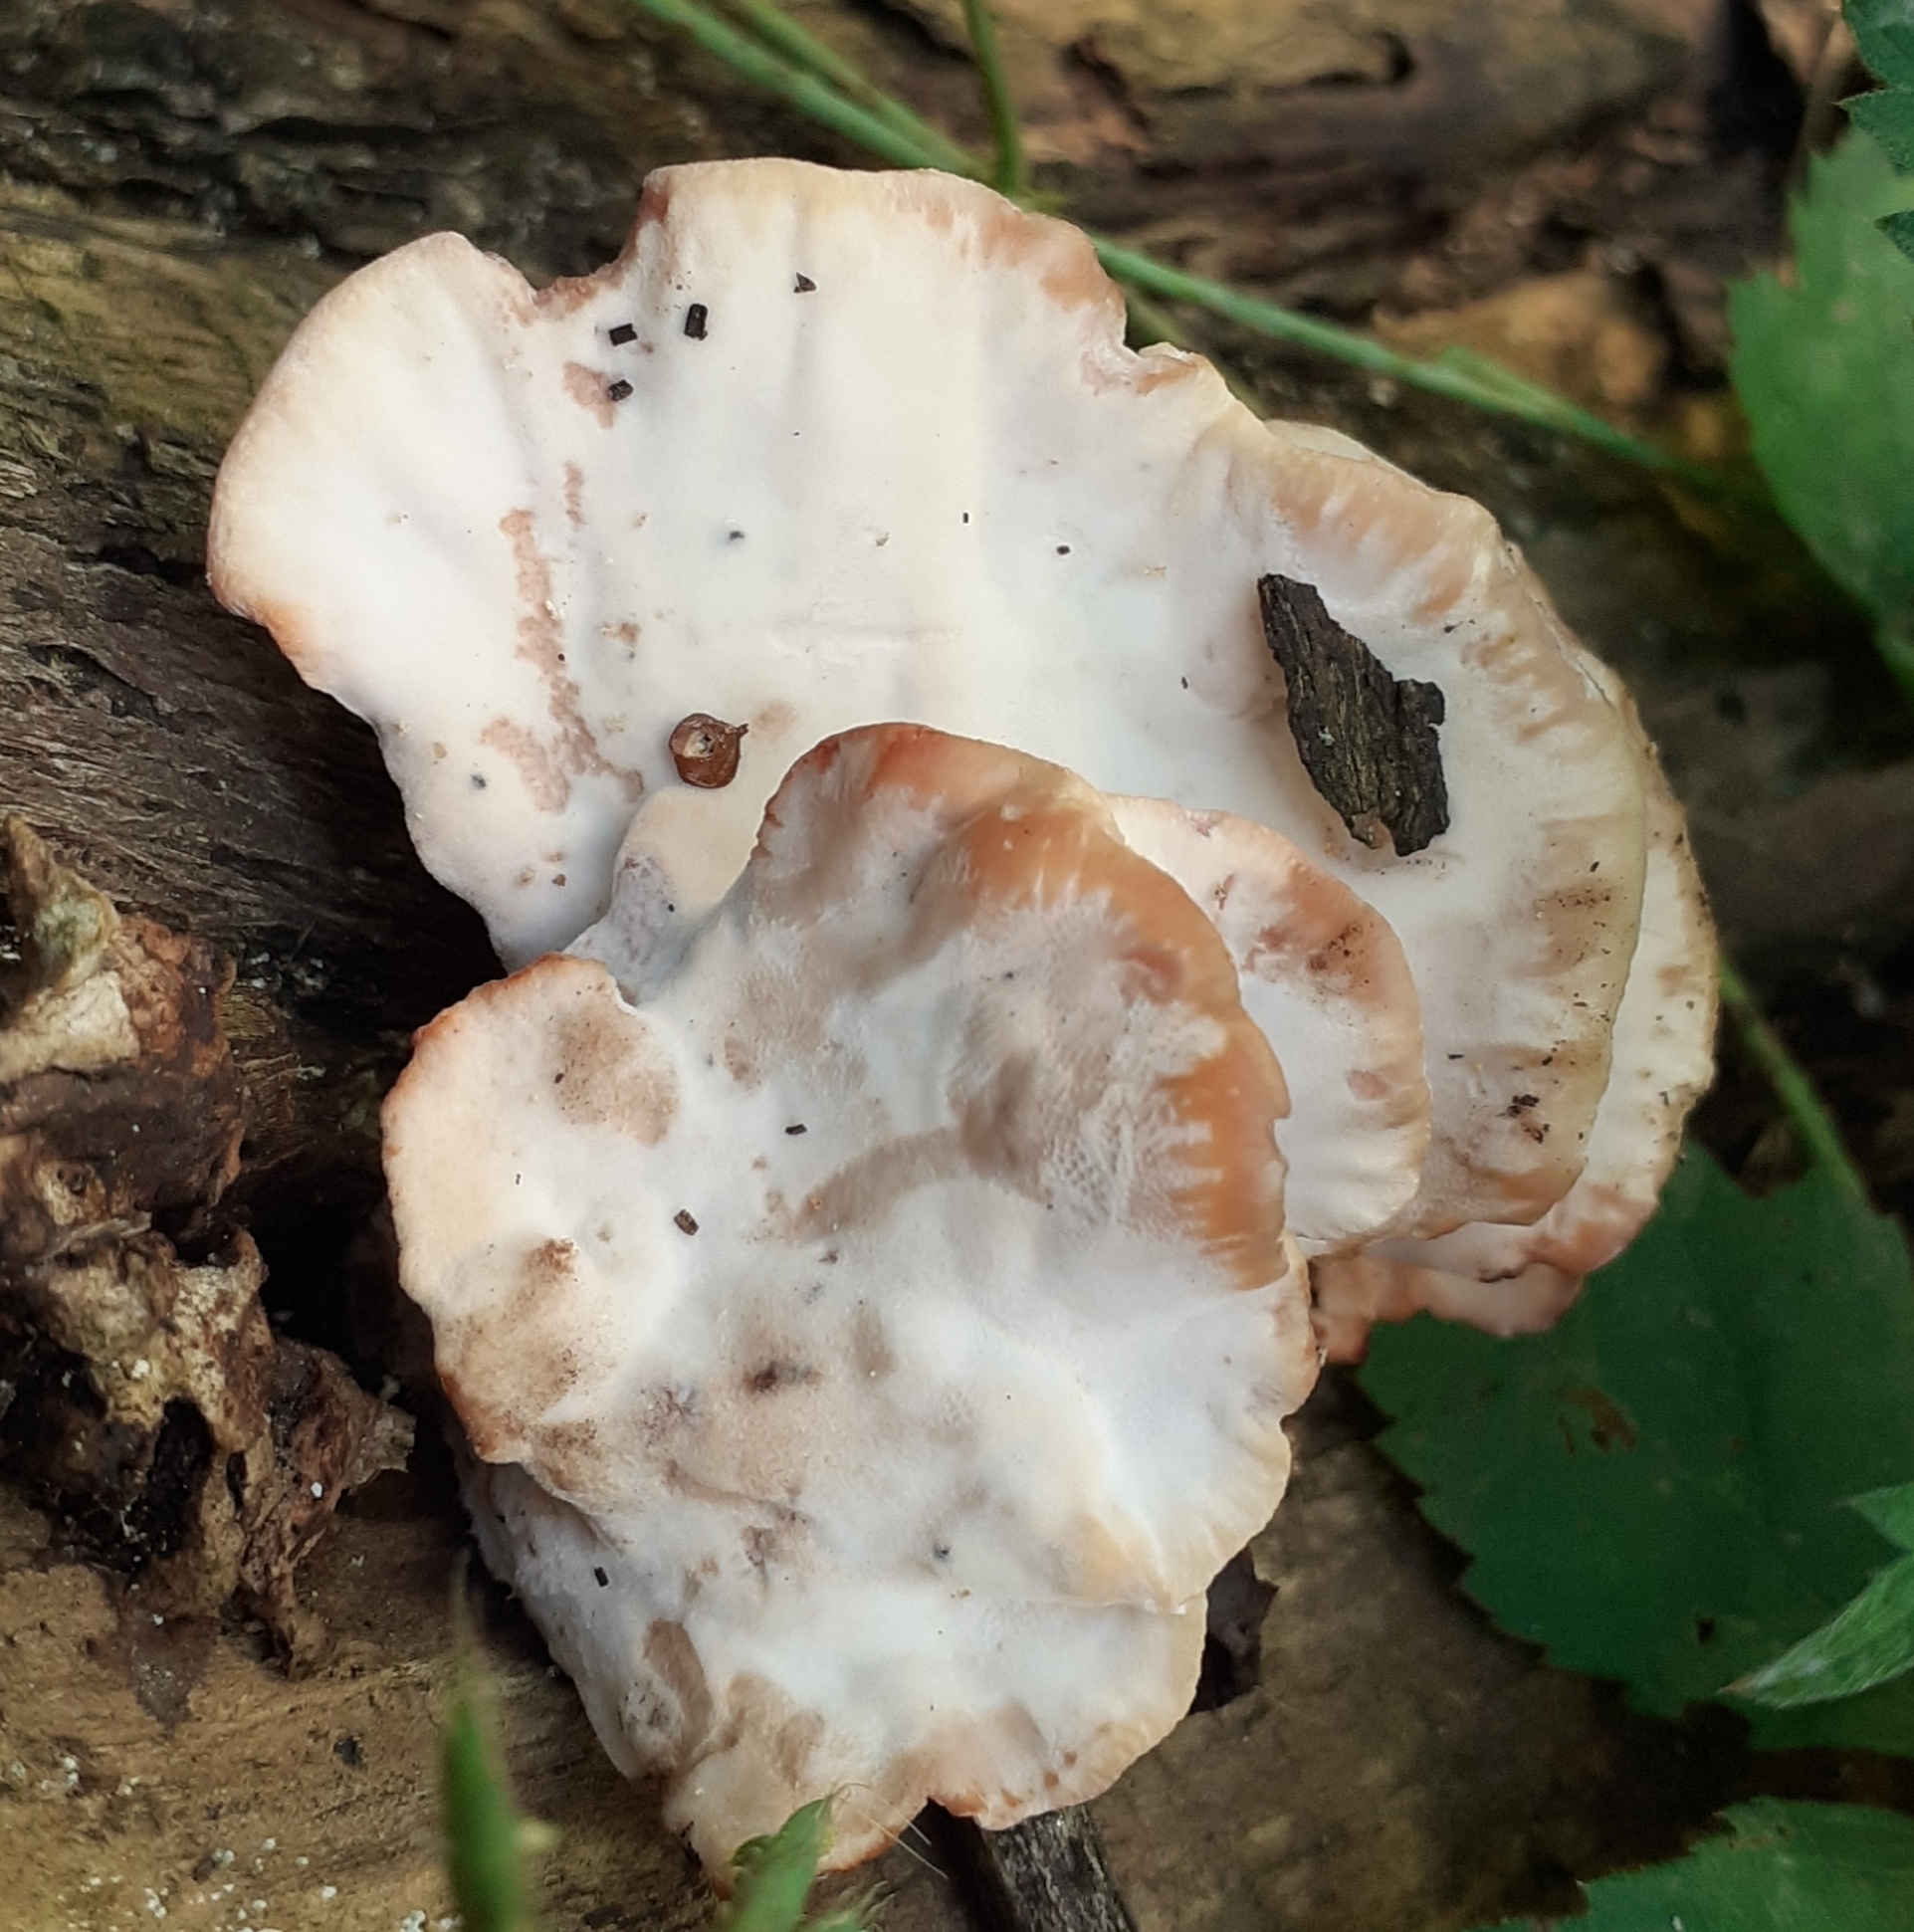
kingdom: Fungi
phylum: Basidiomycota
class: Agaricomycetes
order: Polyporales
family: Podoscyphaceae
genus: Abortiporus
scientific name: Abortiporus biennis
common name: Blushing rosette
